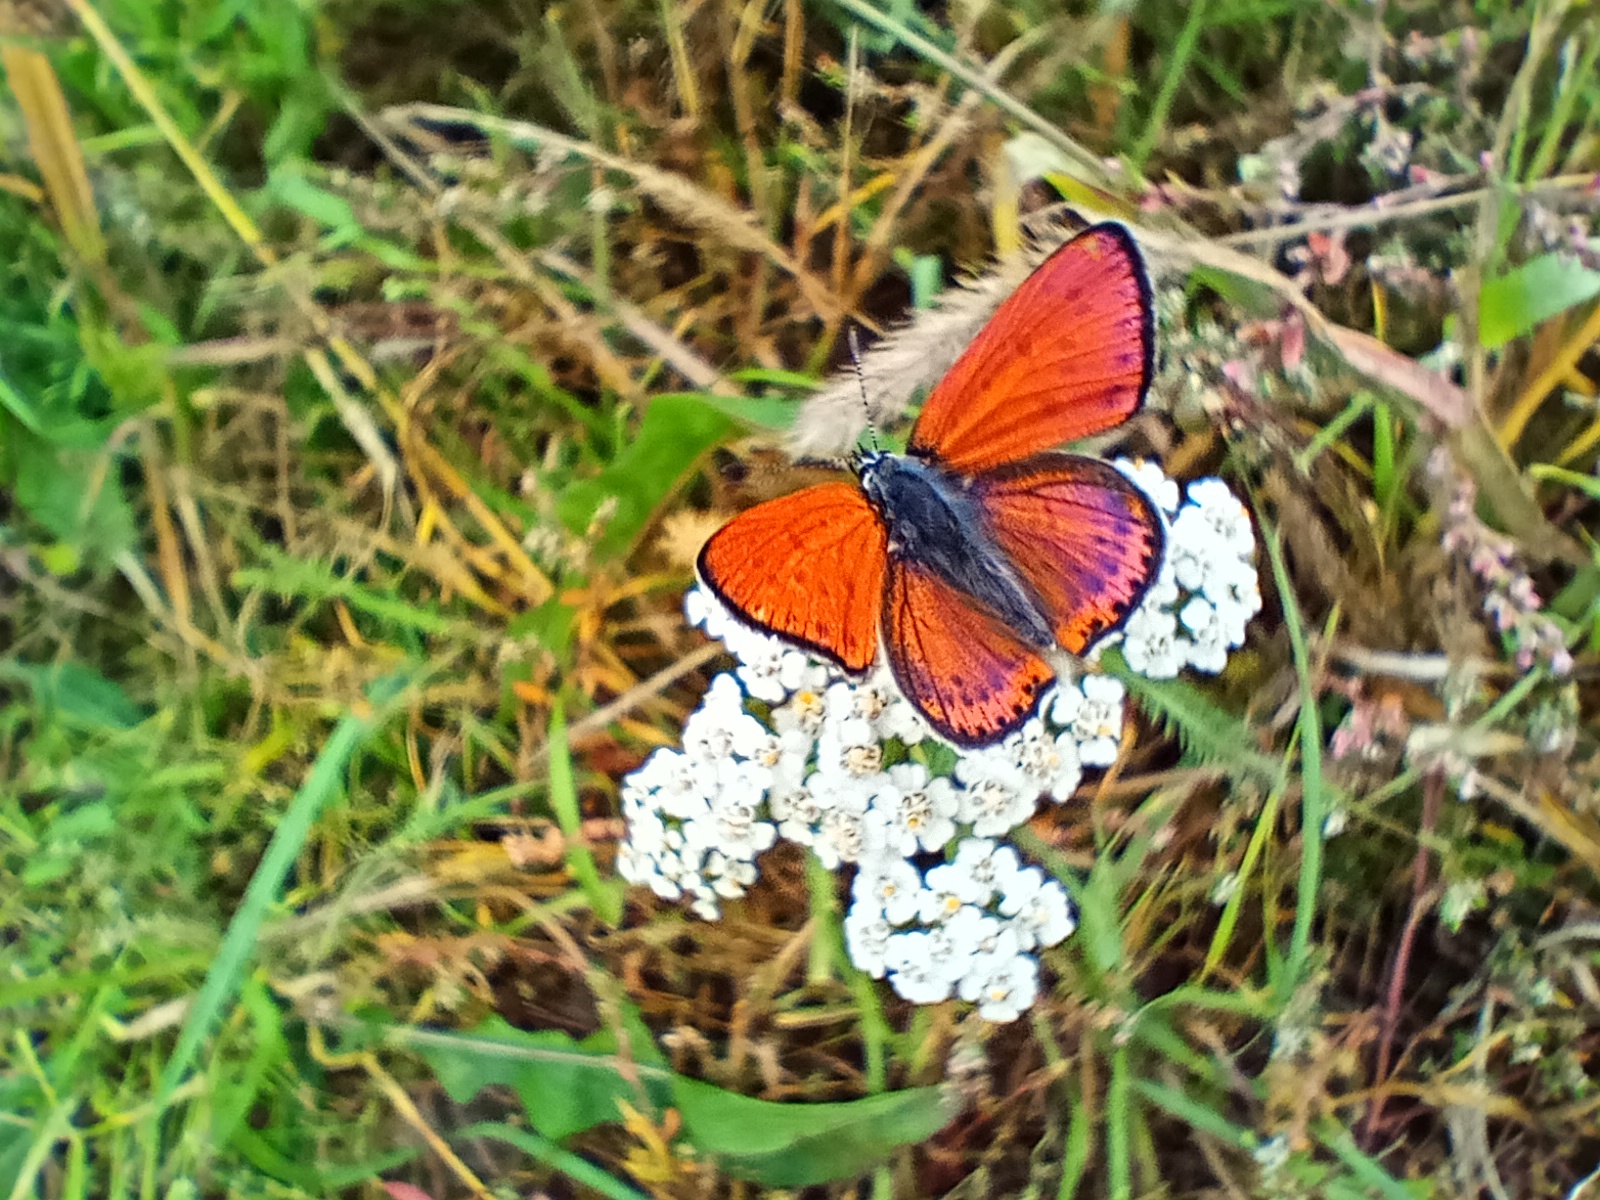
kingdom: Animalia
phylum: Arthropoda
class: Insecta
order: Lepidoptera
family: Lycaenidae
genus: Thersamonia
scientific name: Thersamonia thersamon
